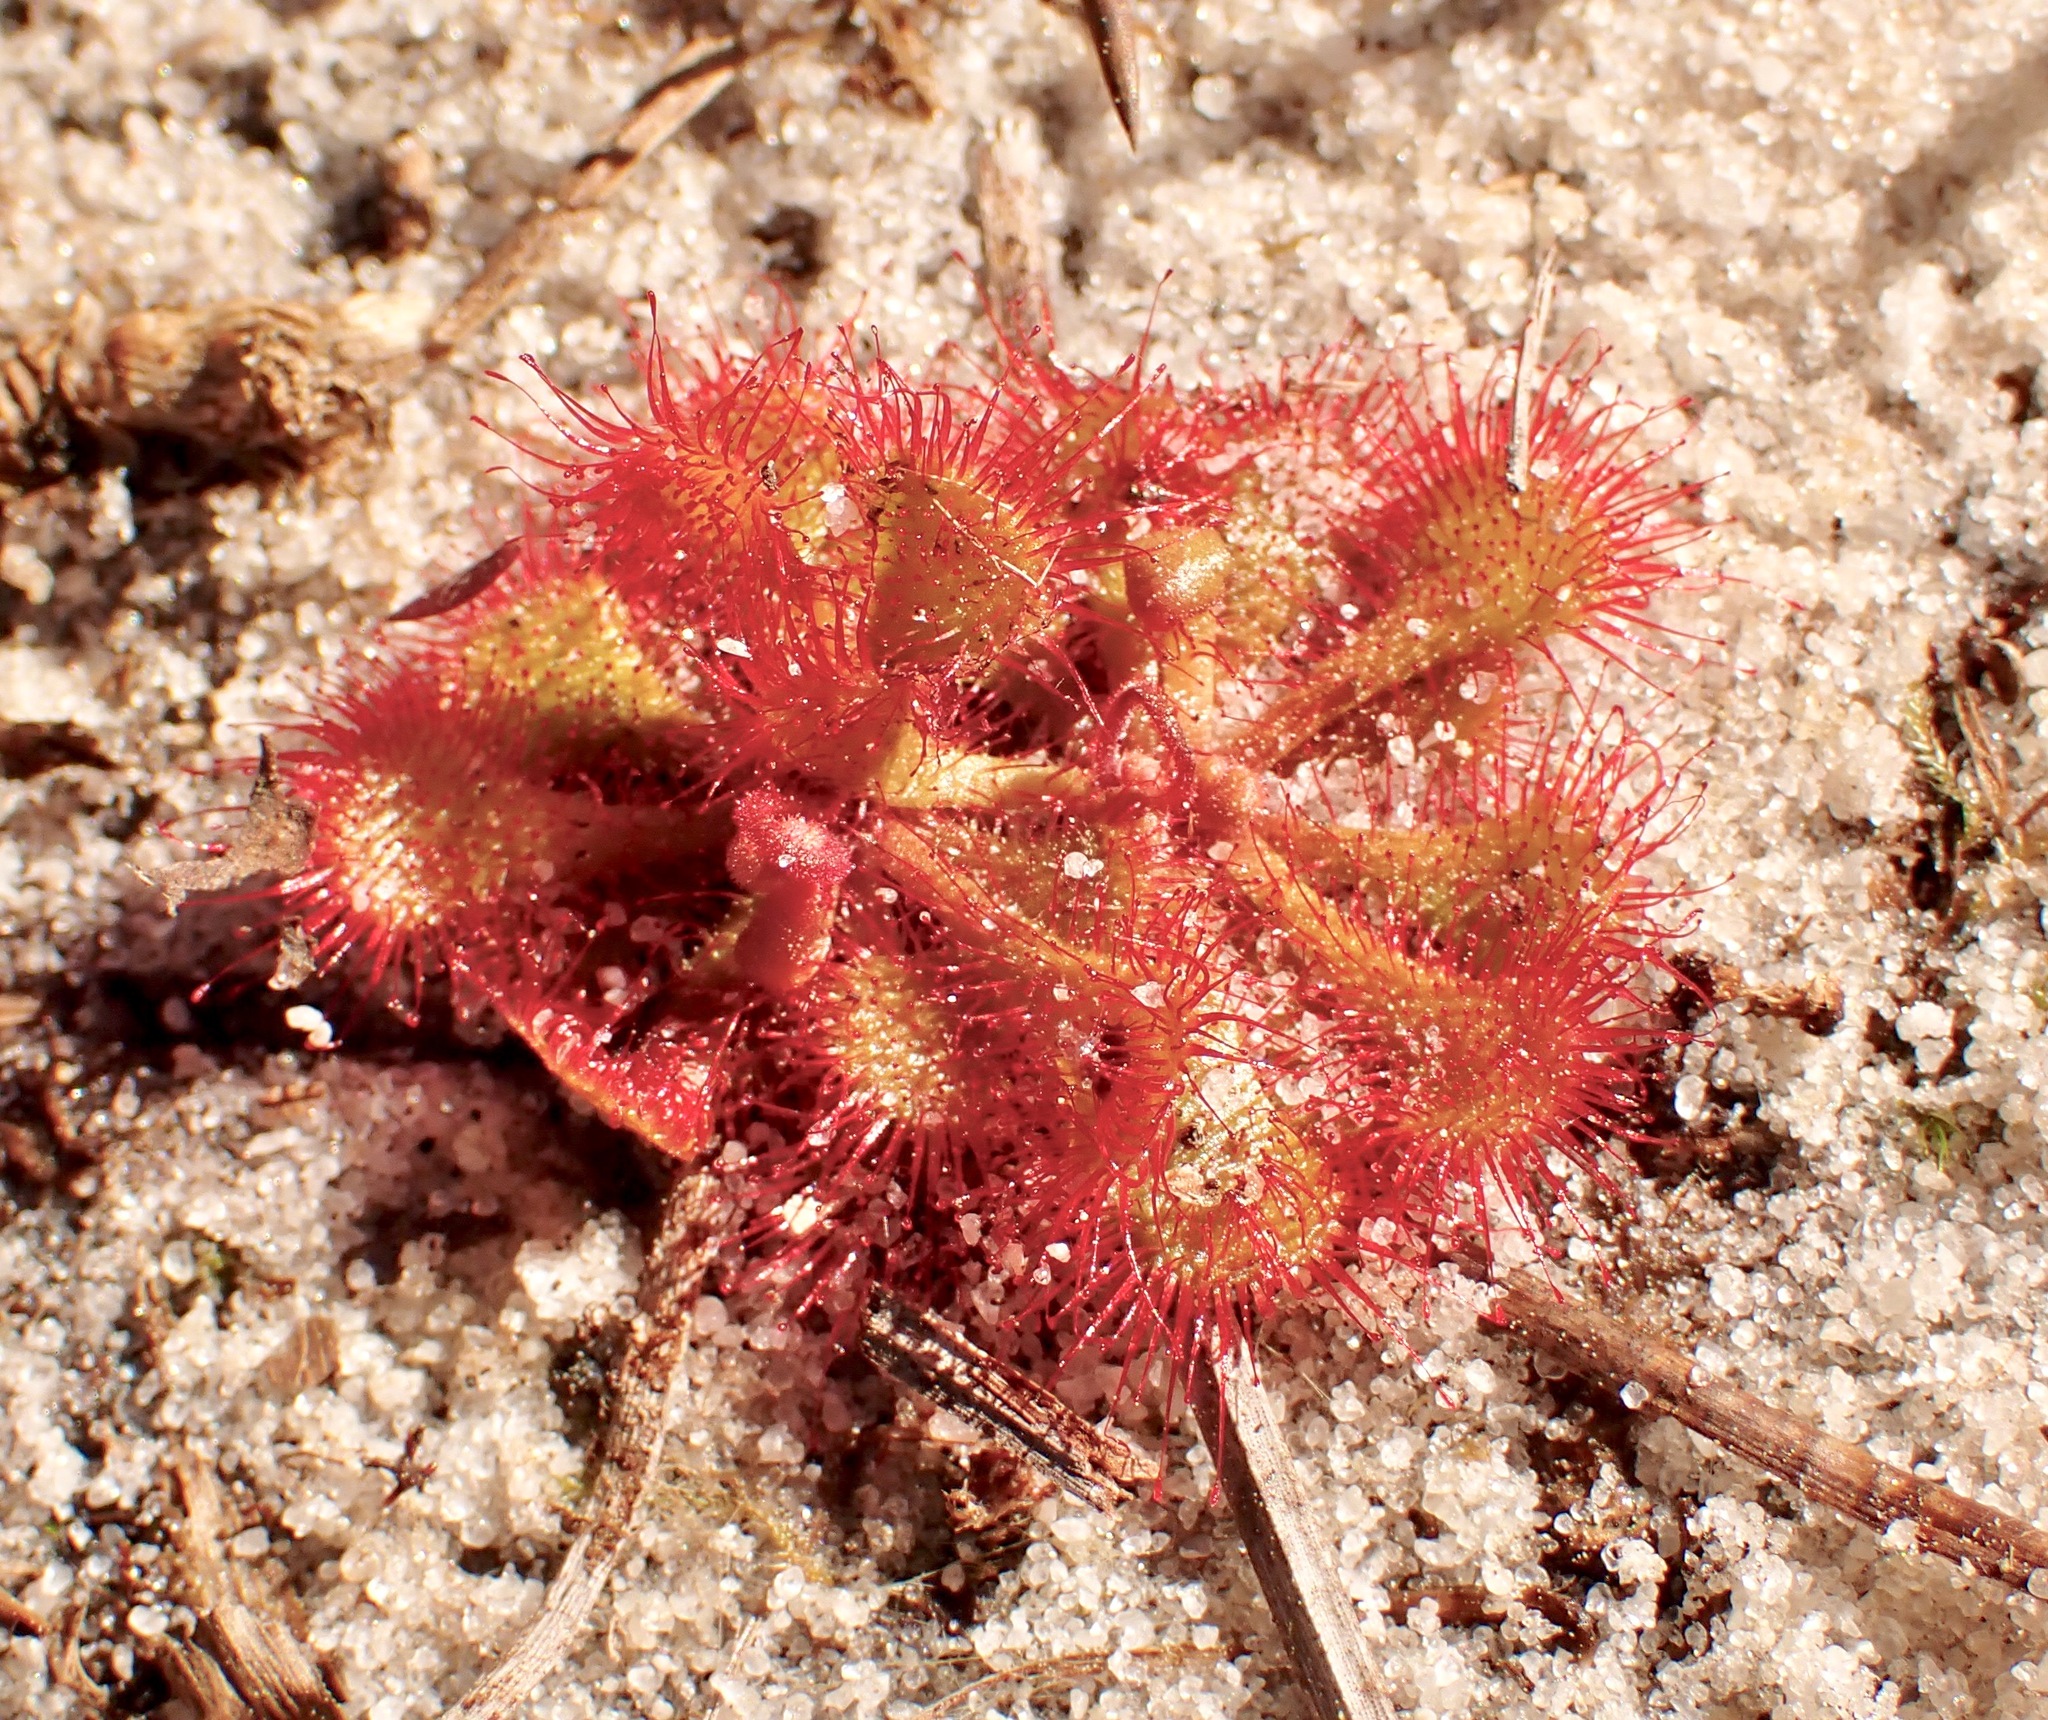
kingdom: Plantae
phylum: Tracheophyta
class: Magnoliopsida
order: Caryophyllales
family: Droseraceae
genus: Drosera
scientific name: Drosera brevifolia
